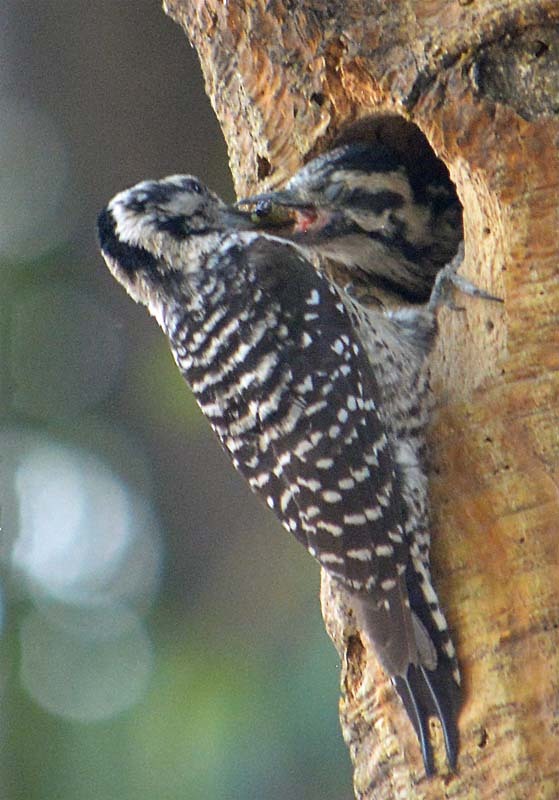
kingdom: Animalia
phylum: Chordata
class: Aves
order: Piciformes
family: Picidae
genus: Dryobates
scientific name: Dryobates scalaris
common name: Ladder-backed woodpecker
